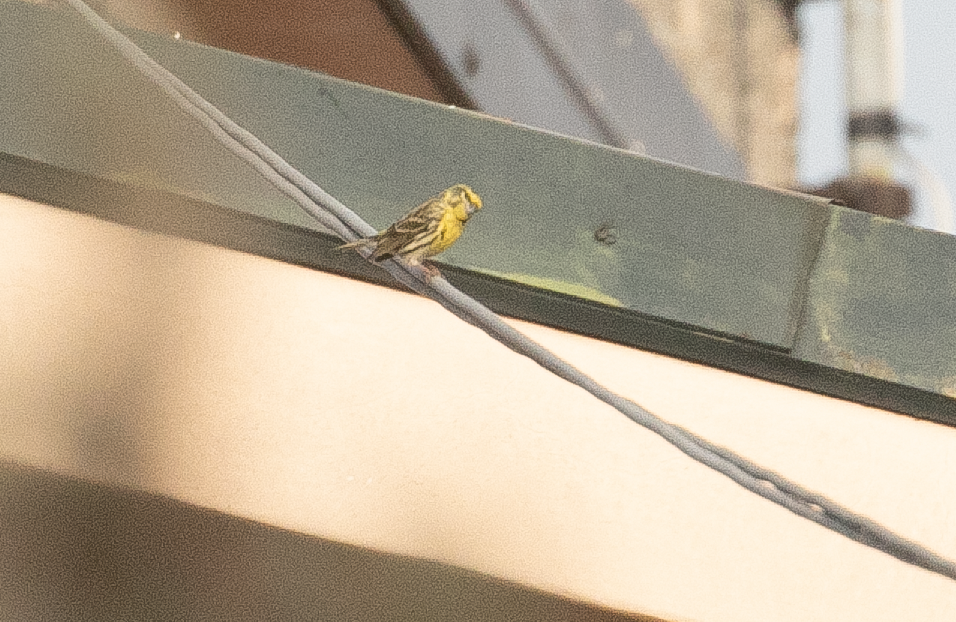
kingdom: Animalia
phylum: Chordata
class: Aves
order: Passeriformes
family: Fringillidae
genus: Serinus
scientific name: Serinus serinus
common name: European serin
